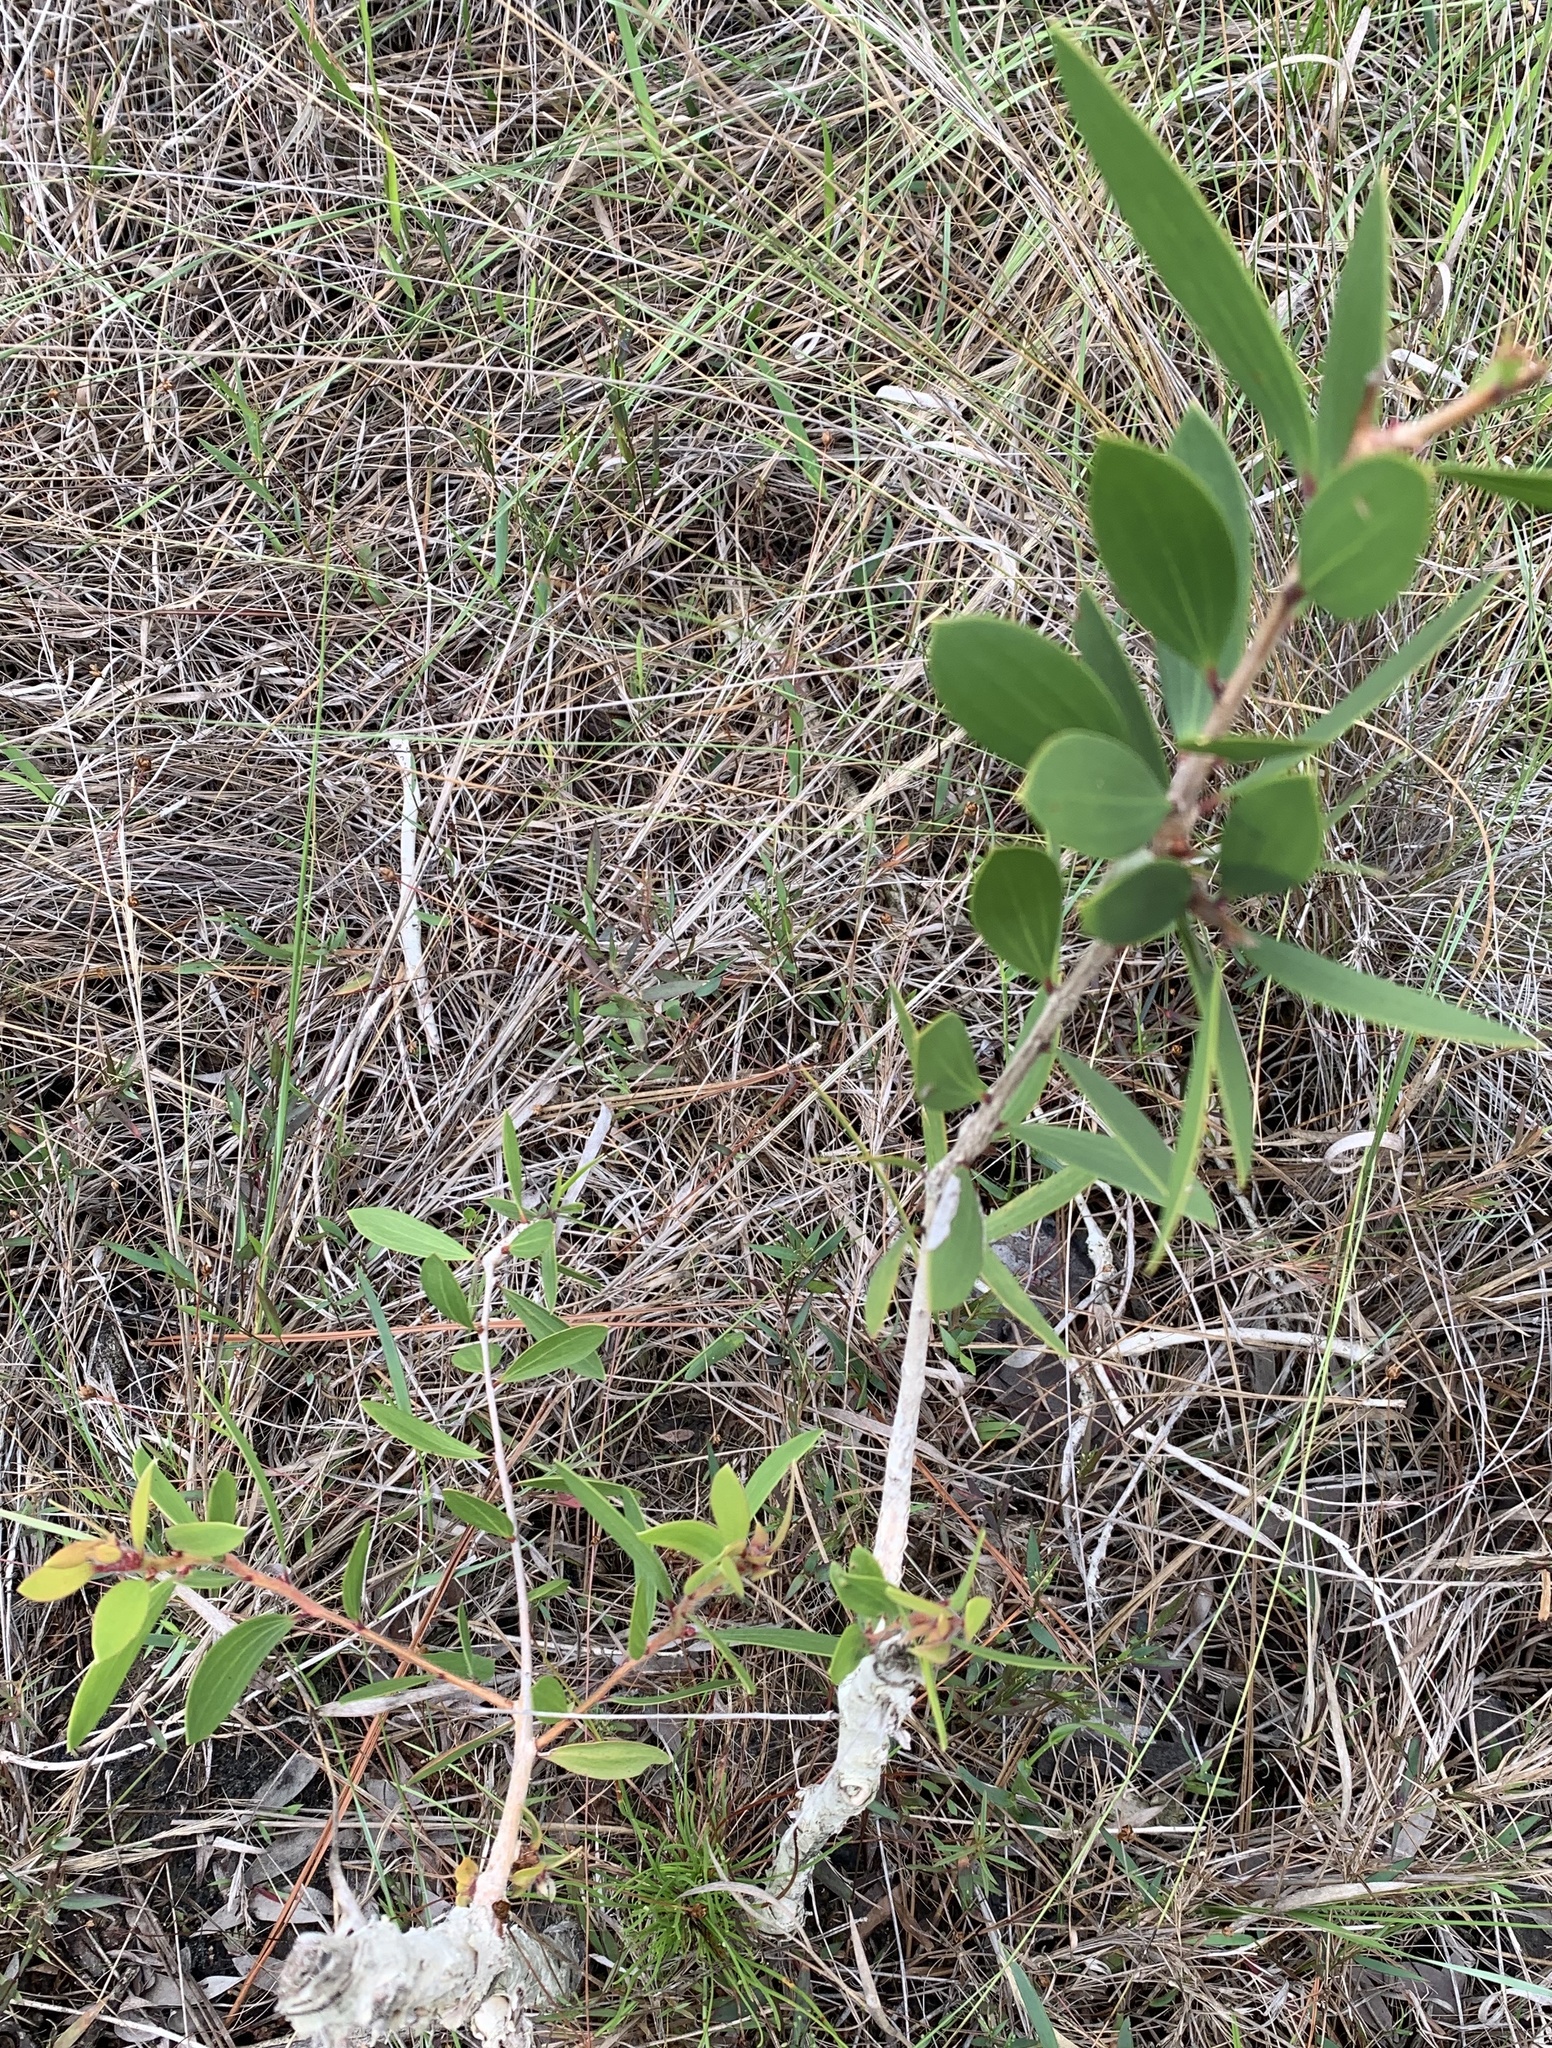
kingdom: Plantae
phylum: Tracheophyta
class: Magnoliopsida
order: Myrtales
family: Myrtaceae
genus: Melaleuca
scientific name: Melaleuca quinquenervia
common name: Punktree
